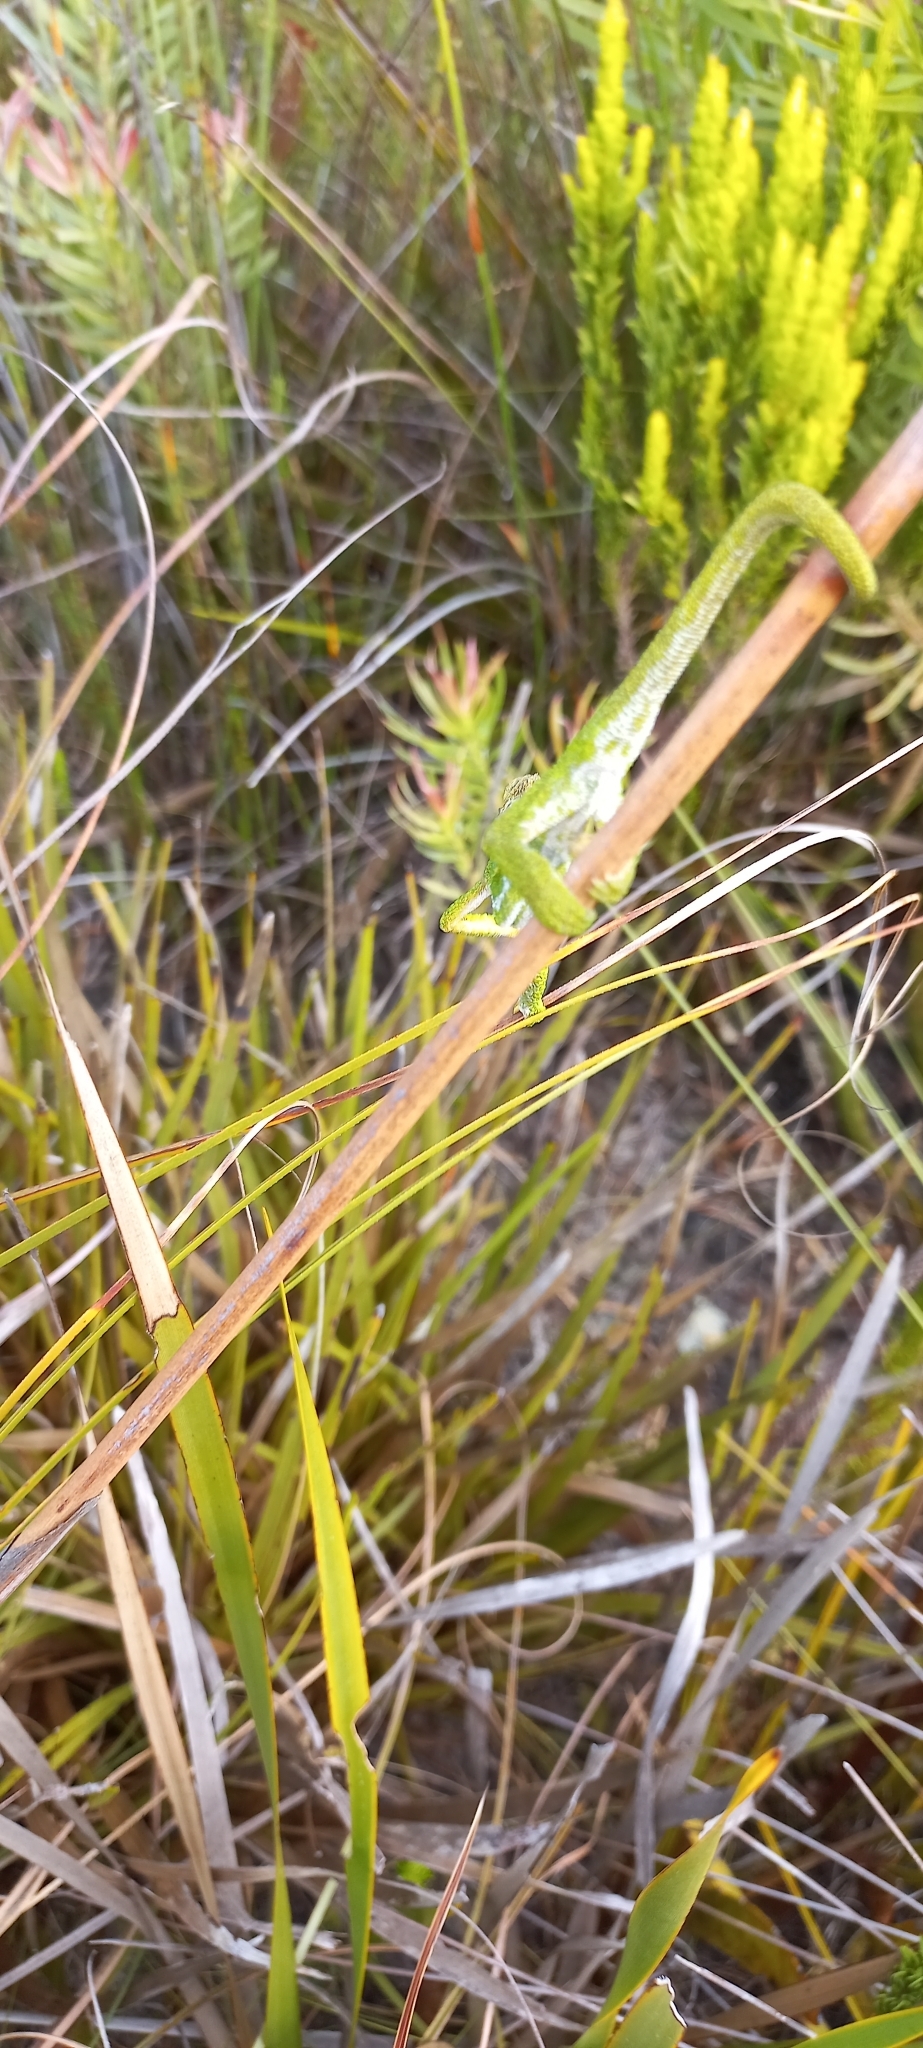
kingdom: Animalia
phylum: Chordata
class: Squamata
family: Chamaeleonidae
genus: Bradypodion
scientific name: Bradypodion pumilum
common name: Cape dwarf chameleon
